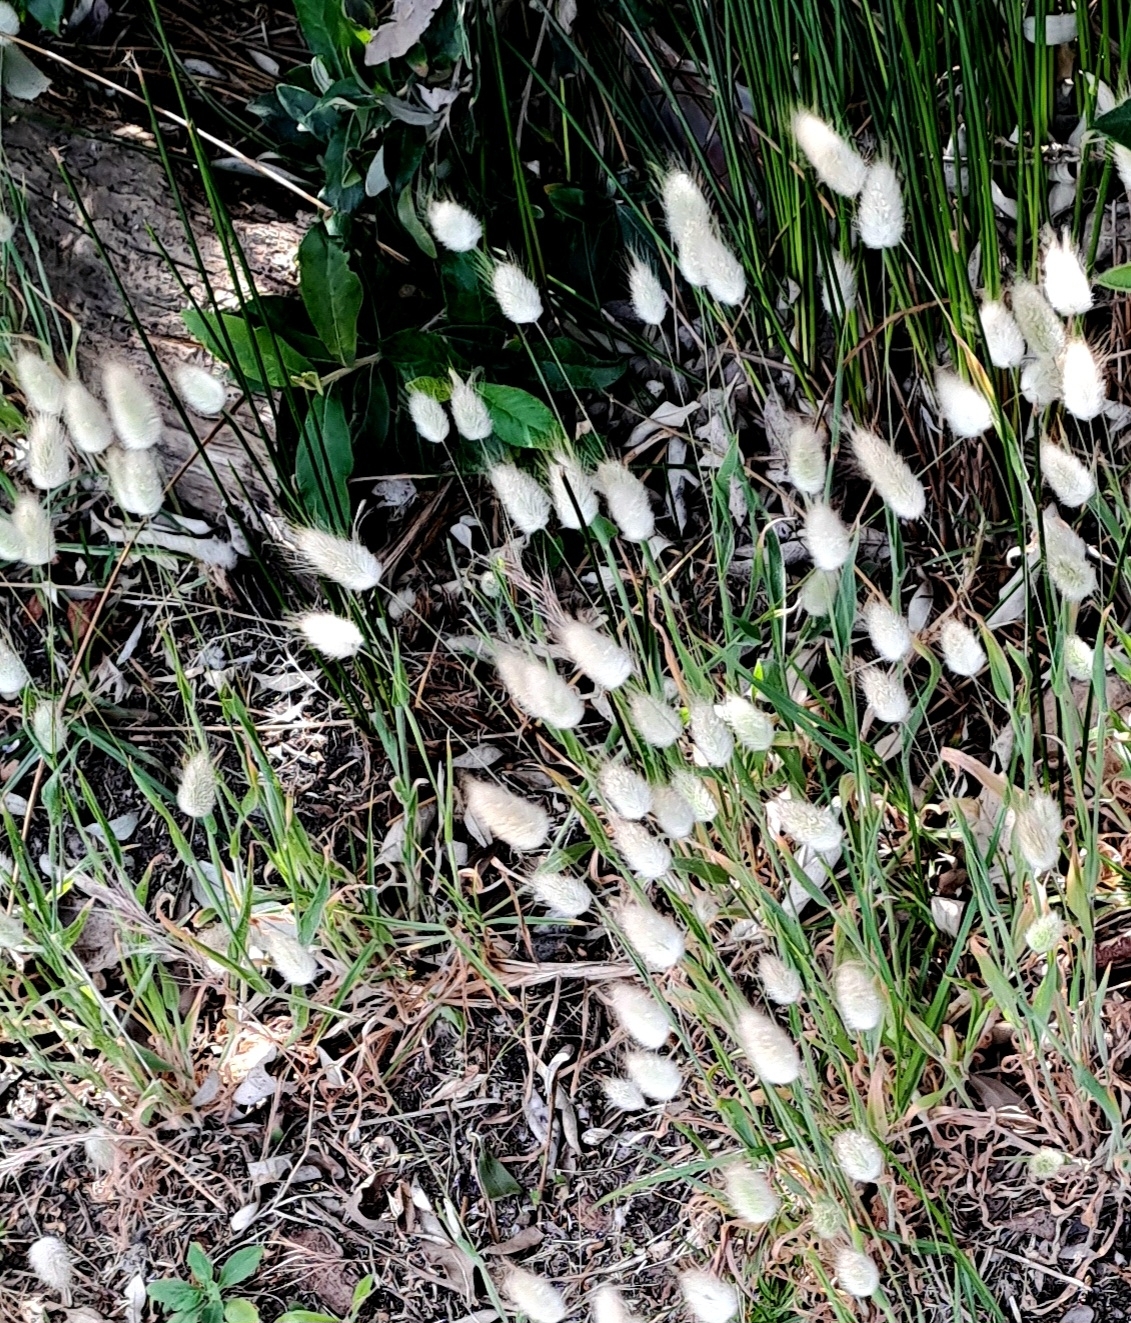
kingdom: Plantae
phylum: Tracheophyta
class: Liliopsida
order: Poales
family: Poaceae
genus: Lagurus
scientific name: Lagurus ovatus
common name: Hare's-tail
